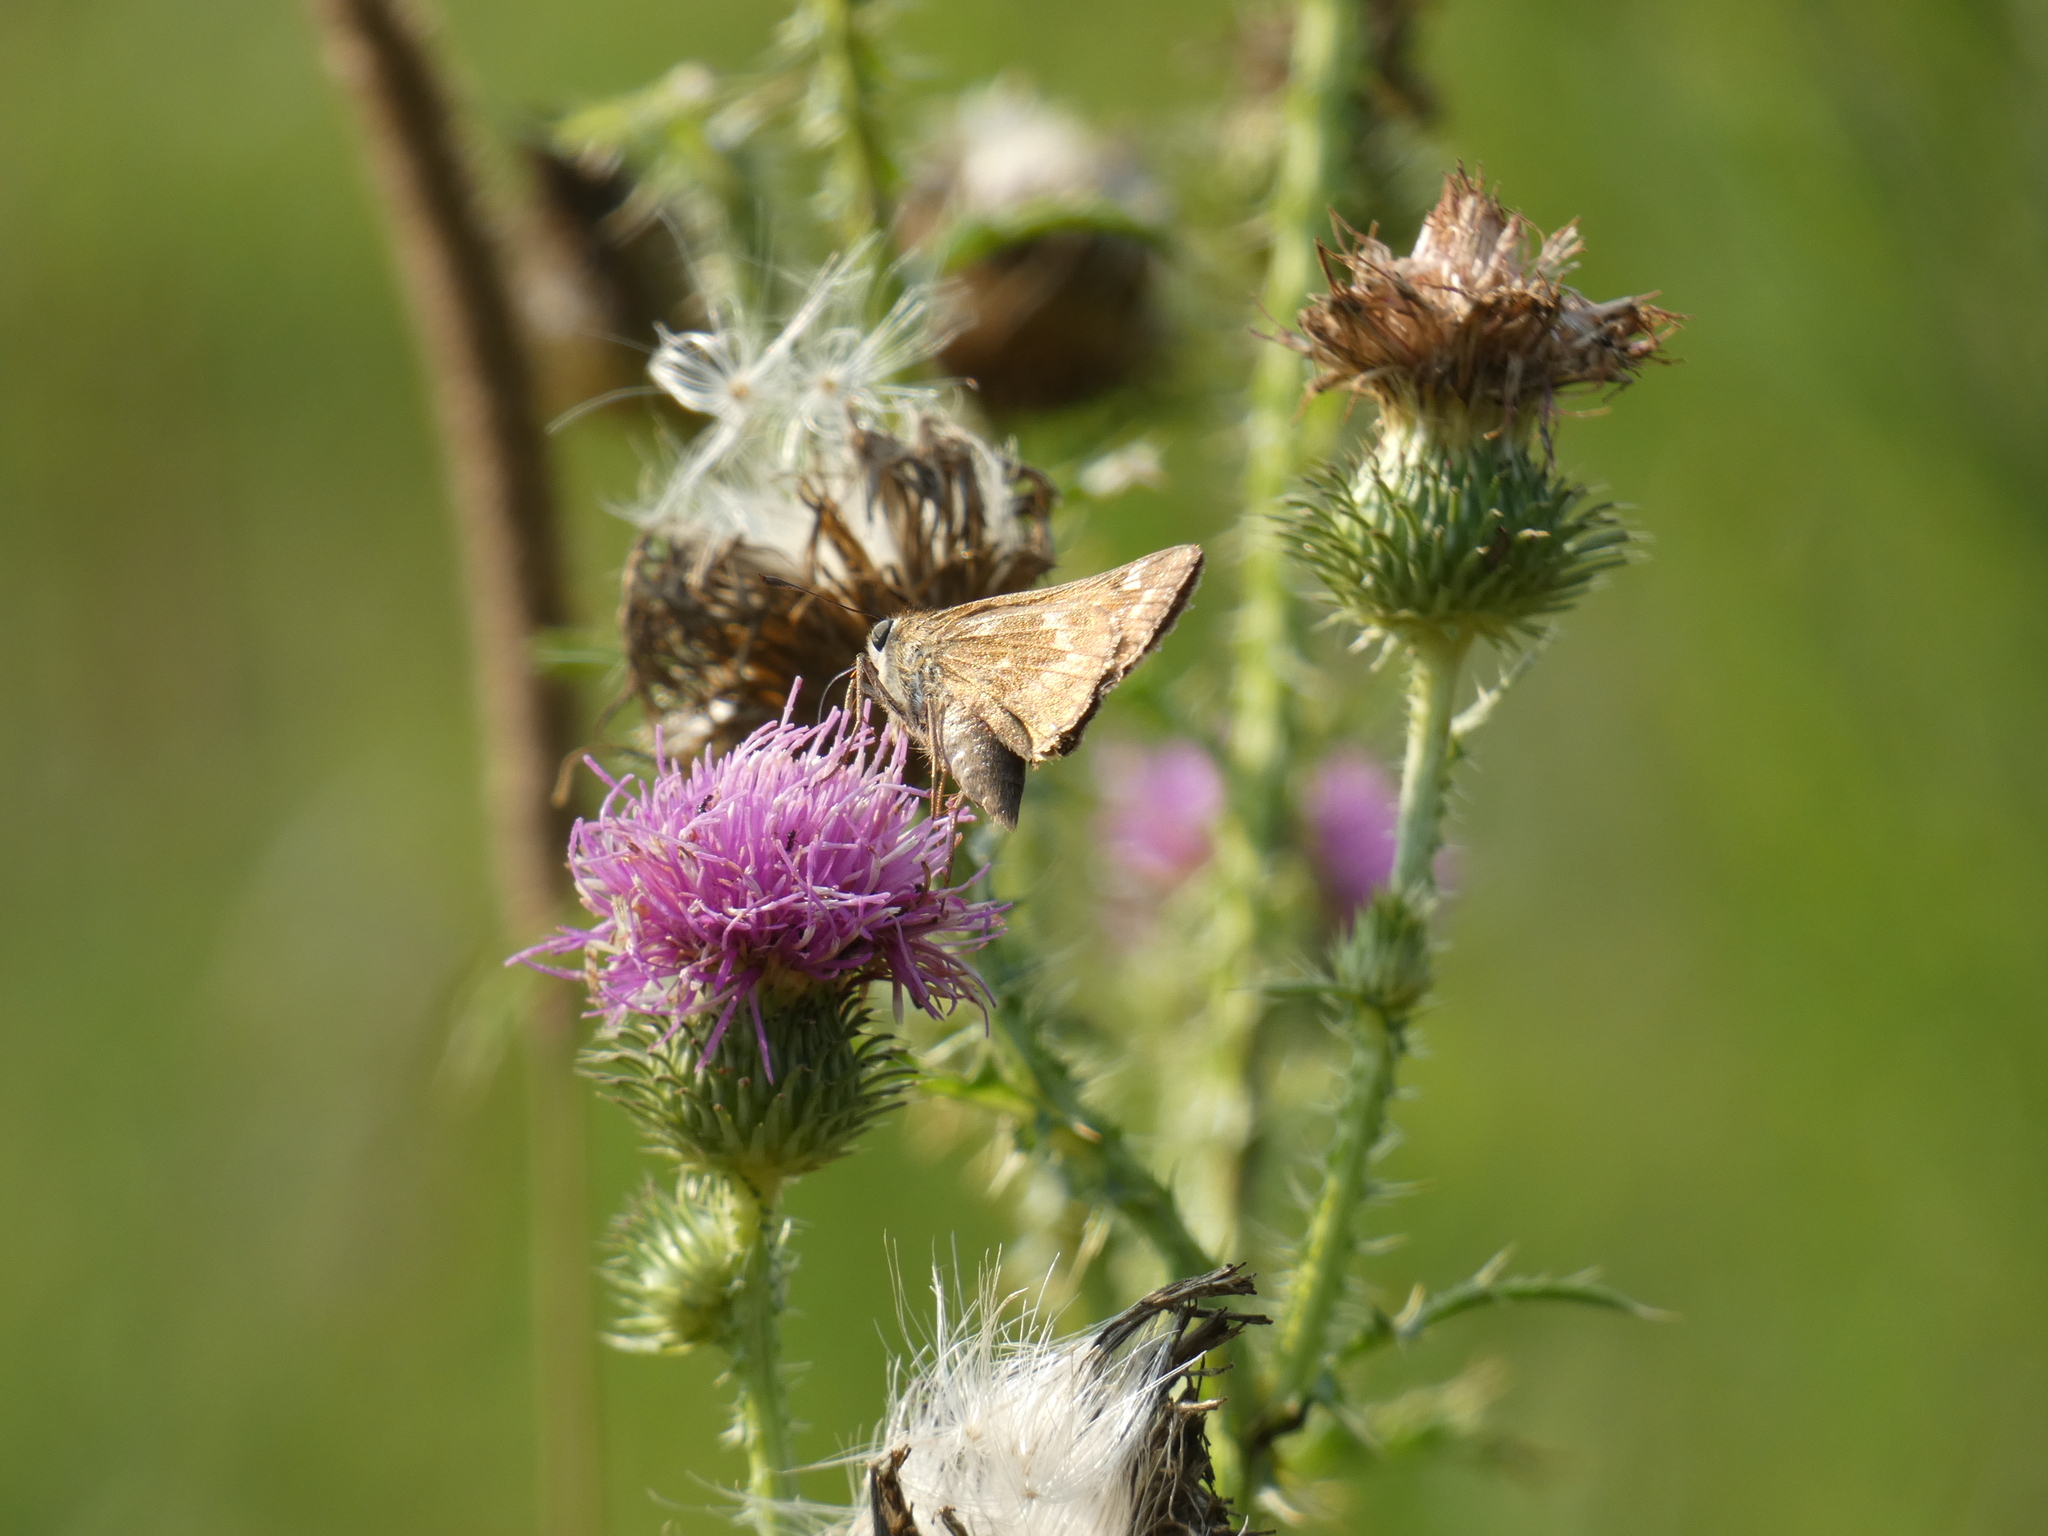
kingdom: Animalia
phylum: Arthropoda
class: Insecta
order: Lepidoptera
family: Hesperiidae
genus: Atalopedes
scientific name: Atalopedes
